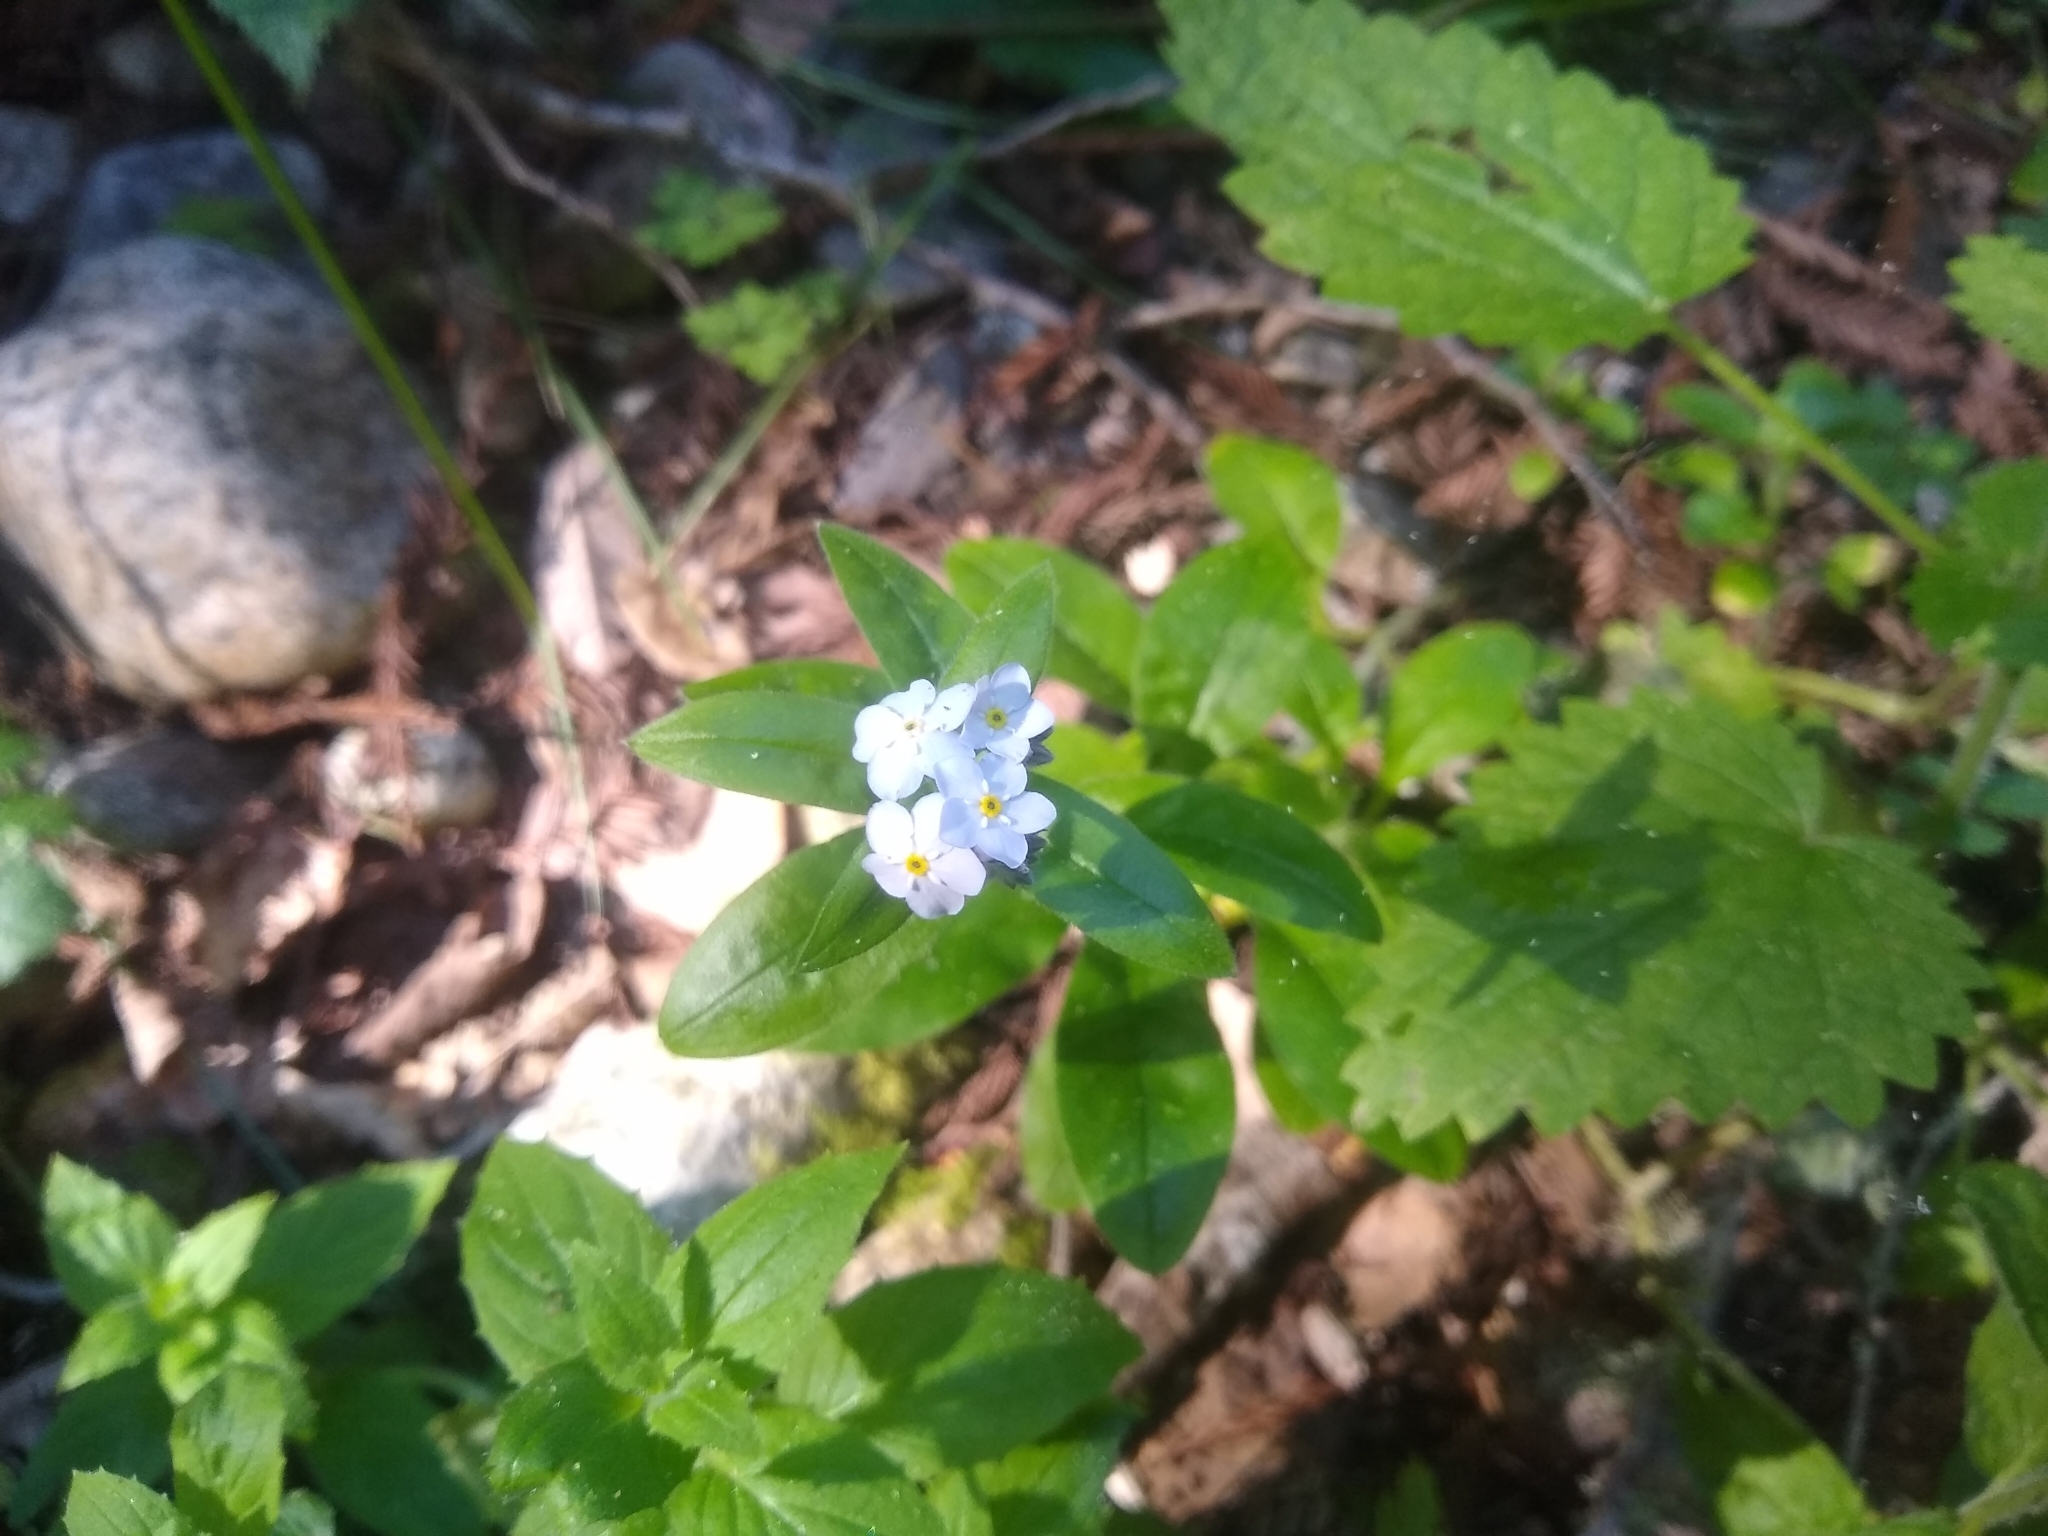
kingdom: Plantae
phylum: Tracheophyta
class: Magnoliopsida
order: Boraginales
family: Boraginaceae
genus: Myosotis
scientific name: Myosotis latifolia
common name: Broadleaf forget-me-not
